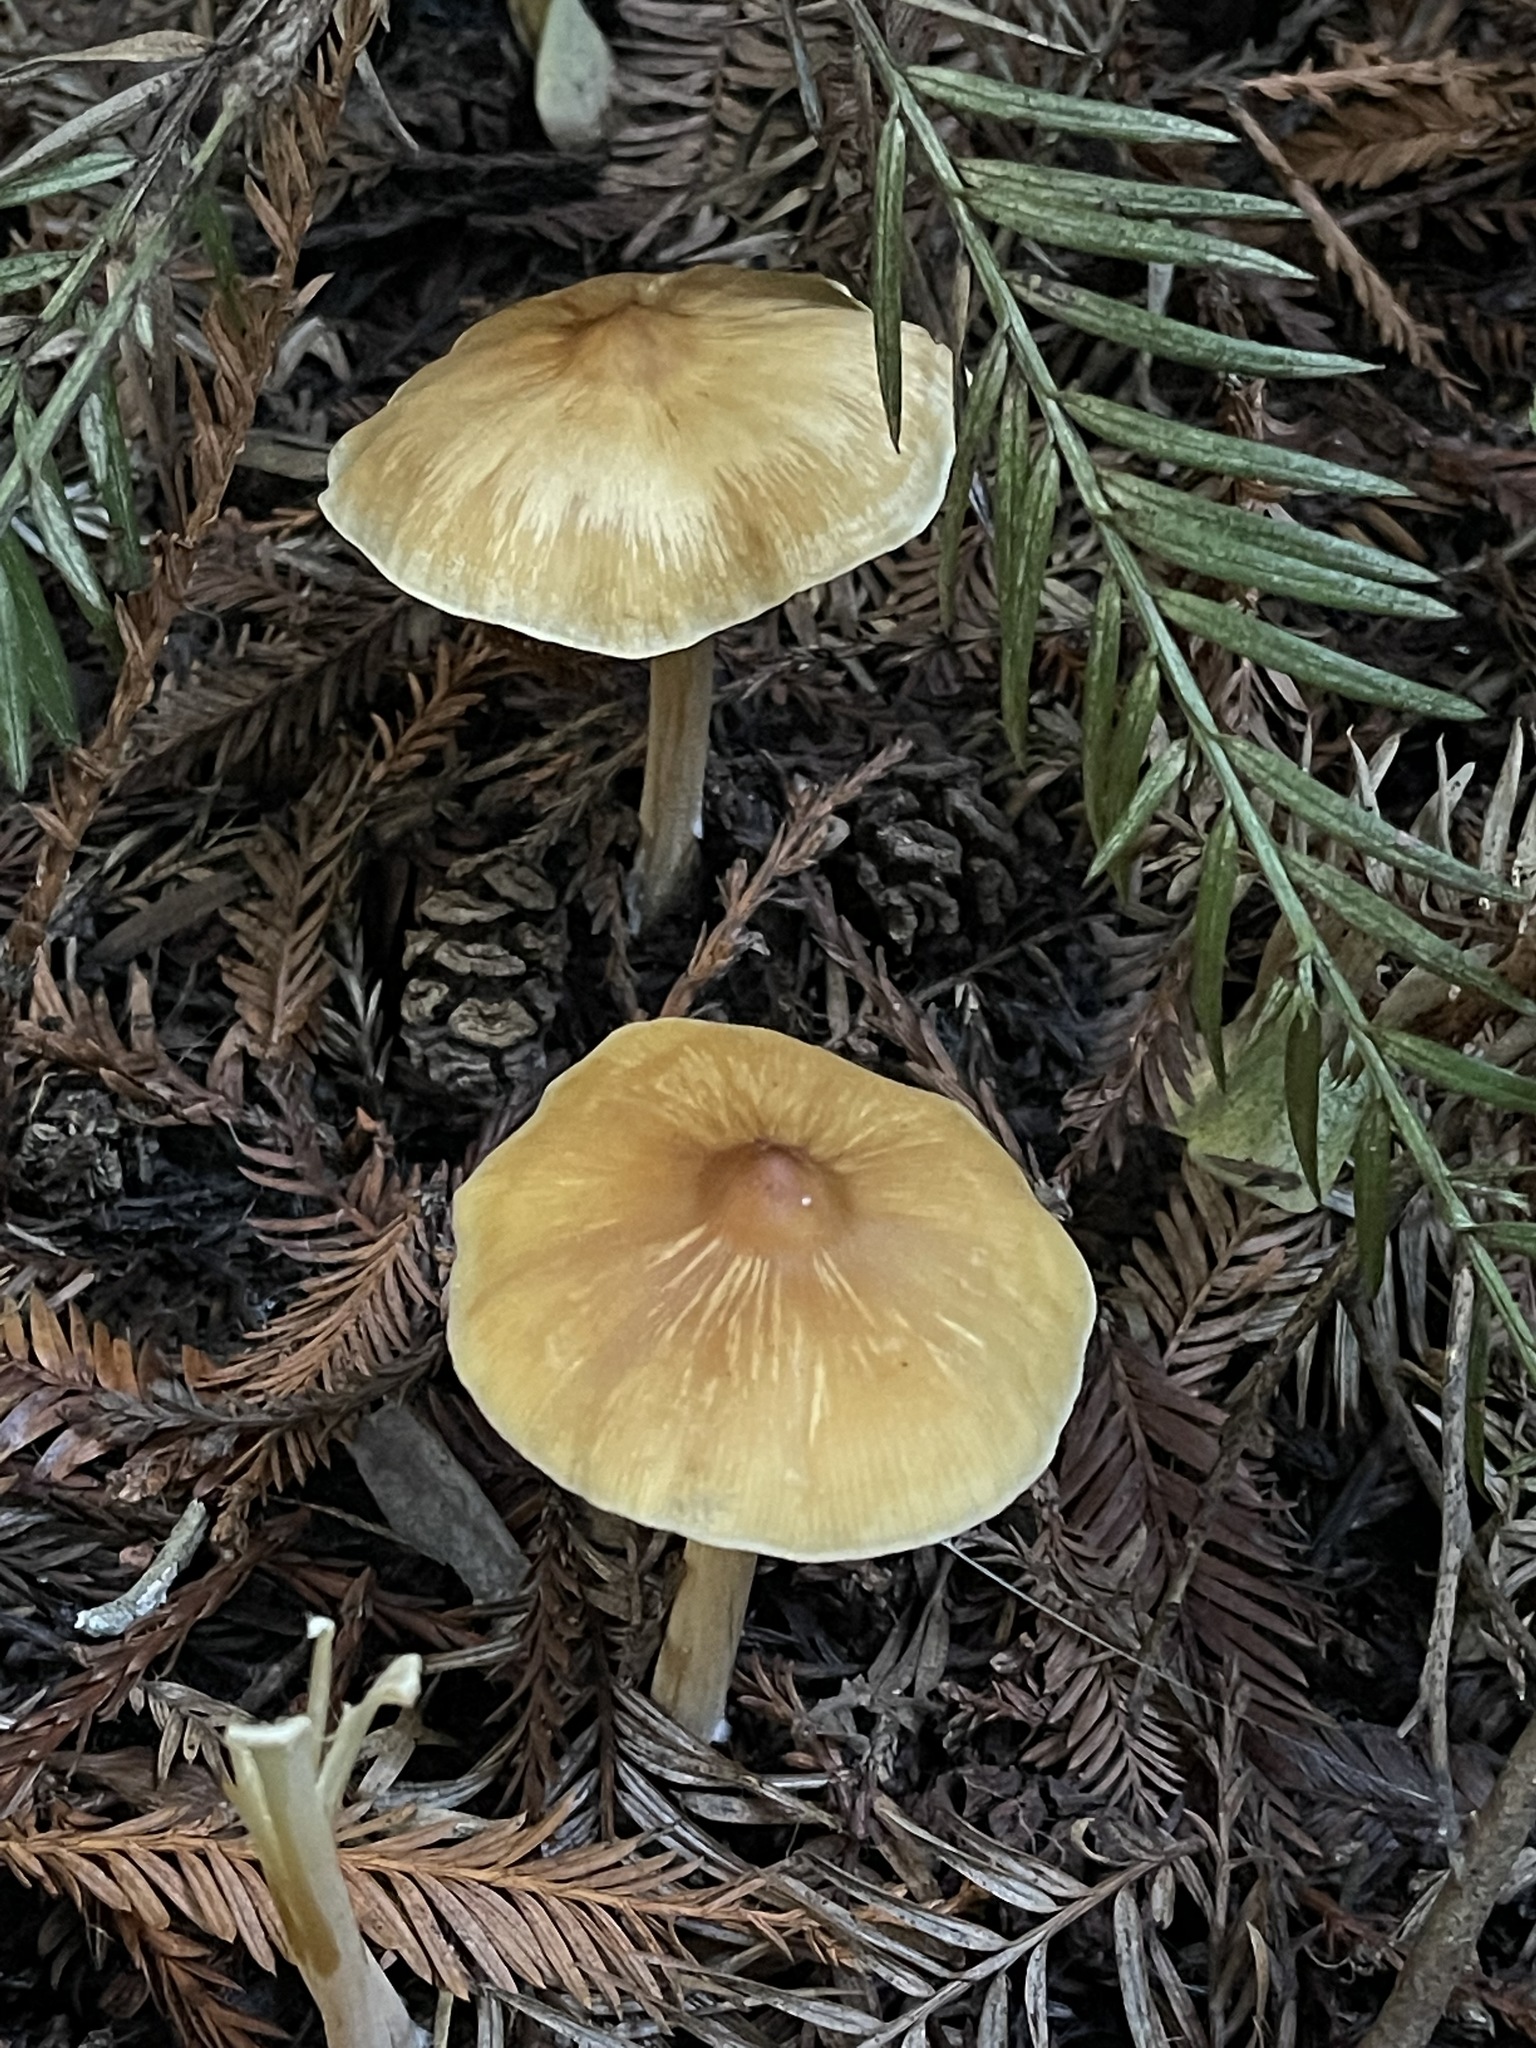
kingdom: Fungi
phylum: Basidiomycota
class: Agaricomycetes
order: Agaricales
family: Tricholomataceae
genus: Caulorhiza
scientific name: Caulorhiza umbonata
